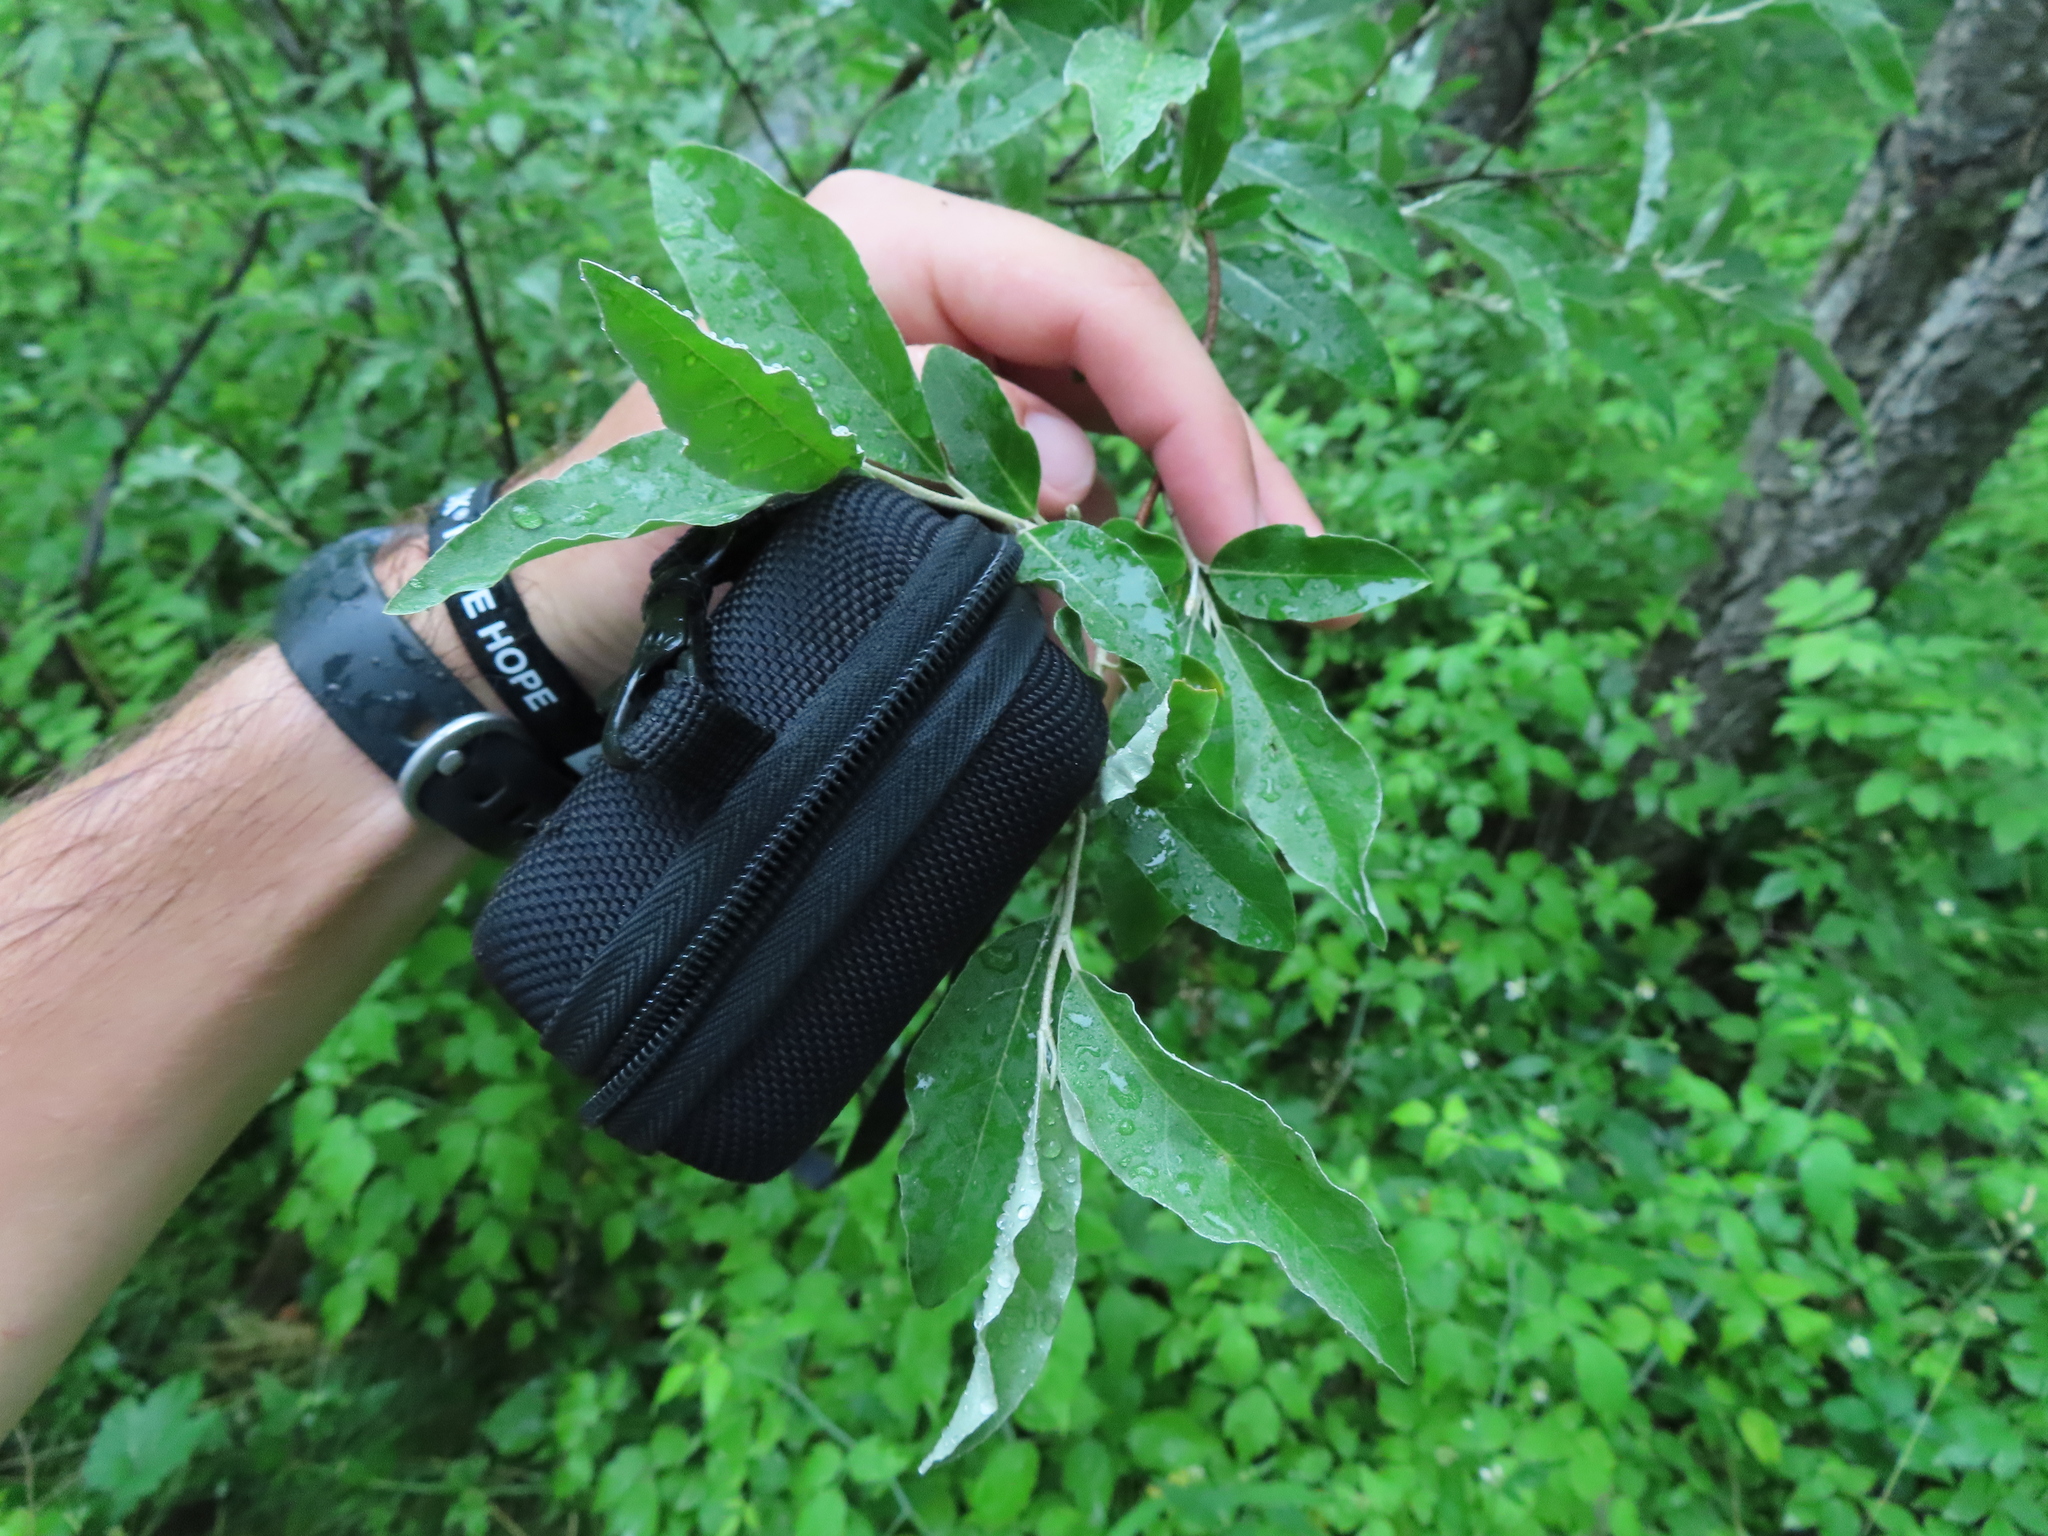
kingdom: Plantae
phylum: Tracheophyta
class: Magnoliopsida
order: Rosales
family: Elaeagnaceae
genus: Elaeagnus
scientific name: Elaeagnus umbellata
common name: Autumn olive
